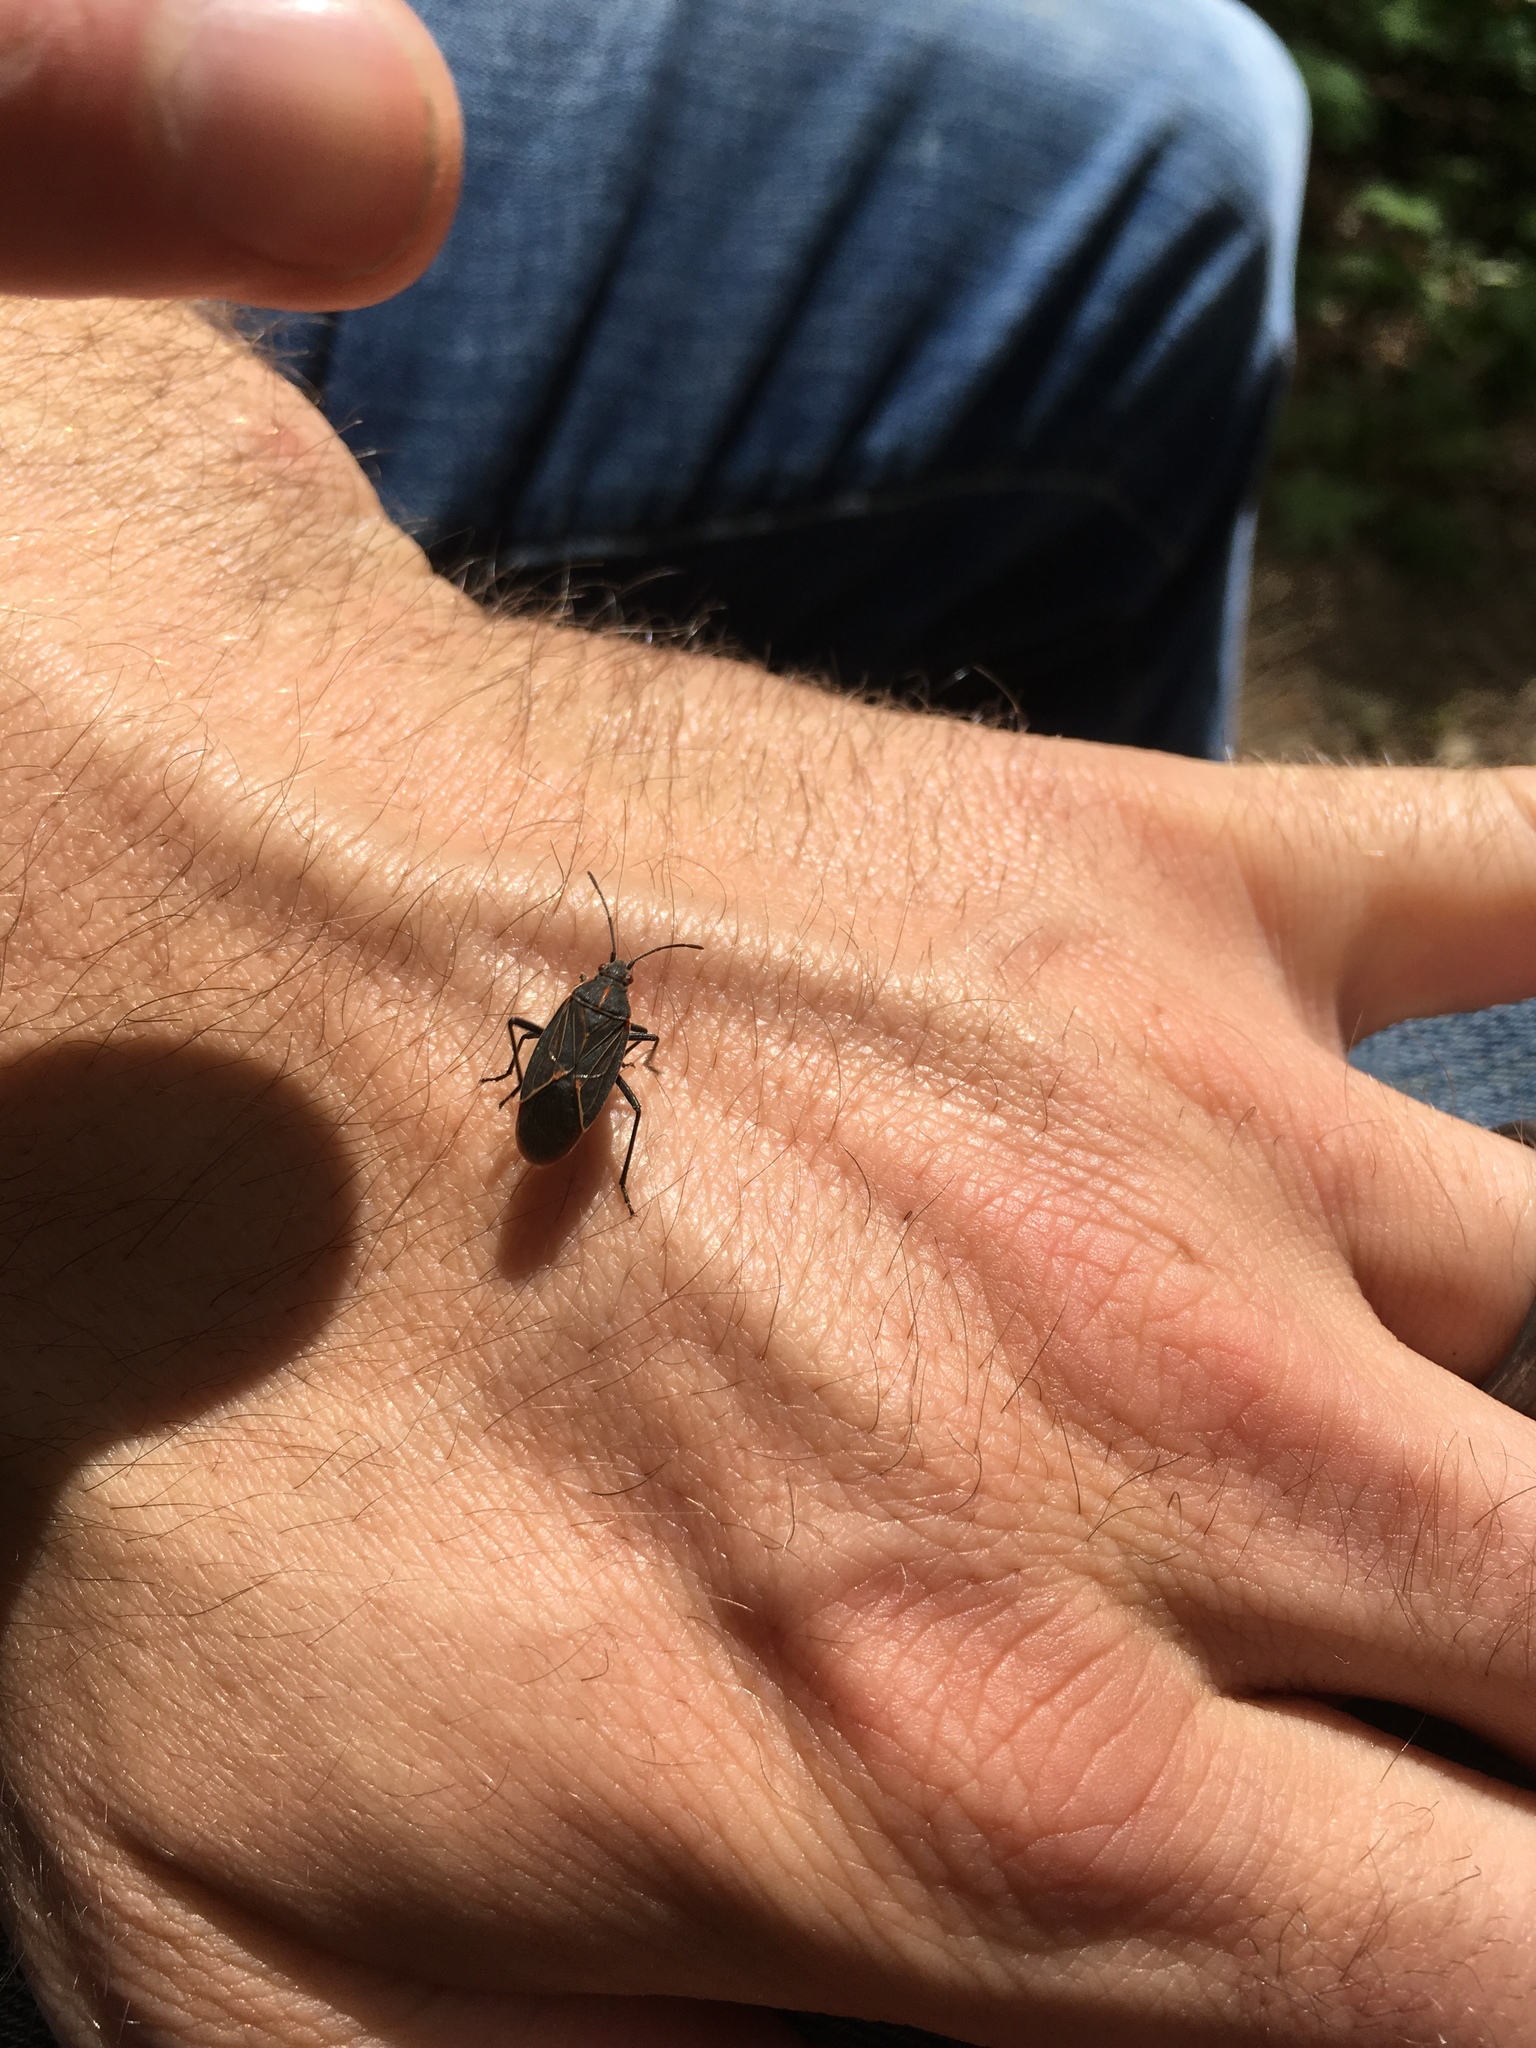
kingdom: Animalia
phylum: Arthropoda
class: Insecta
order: Hemiptera
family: Rhopalidae
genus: Boisea
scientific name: Boisea rubrolineata
